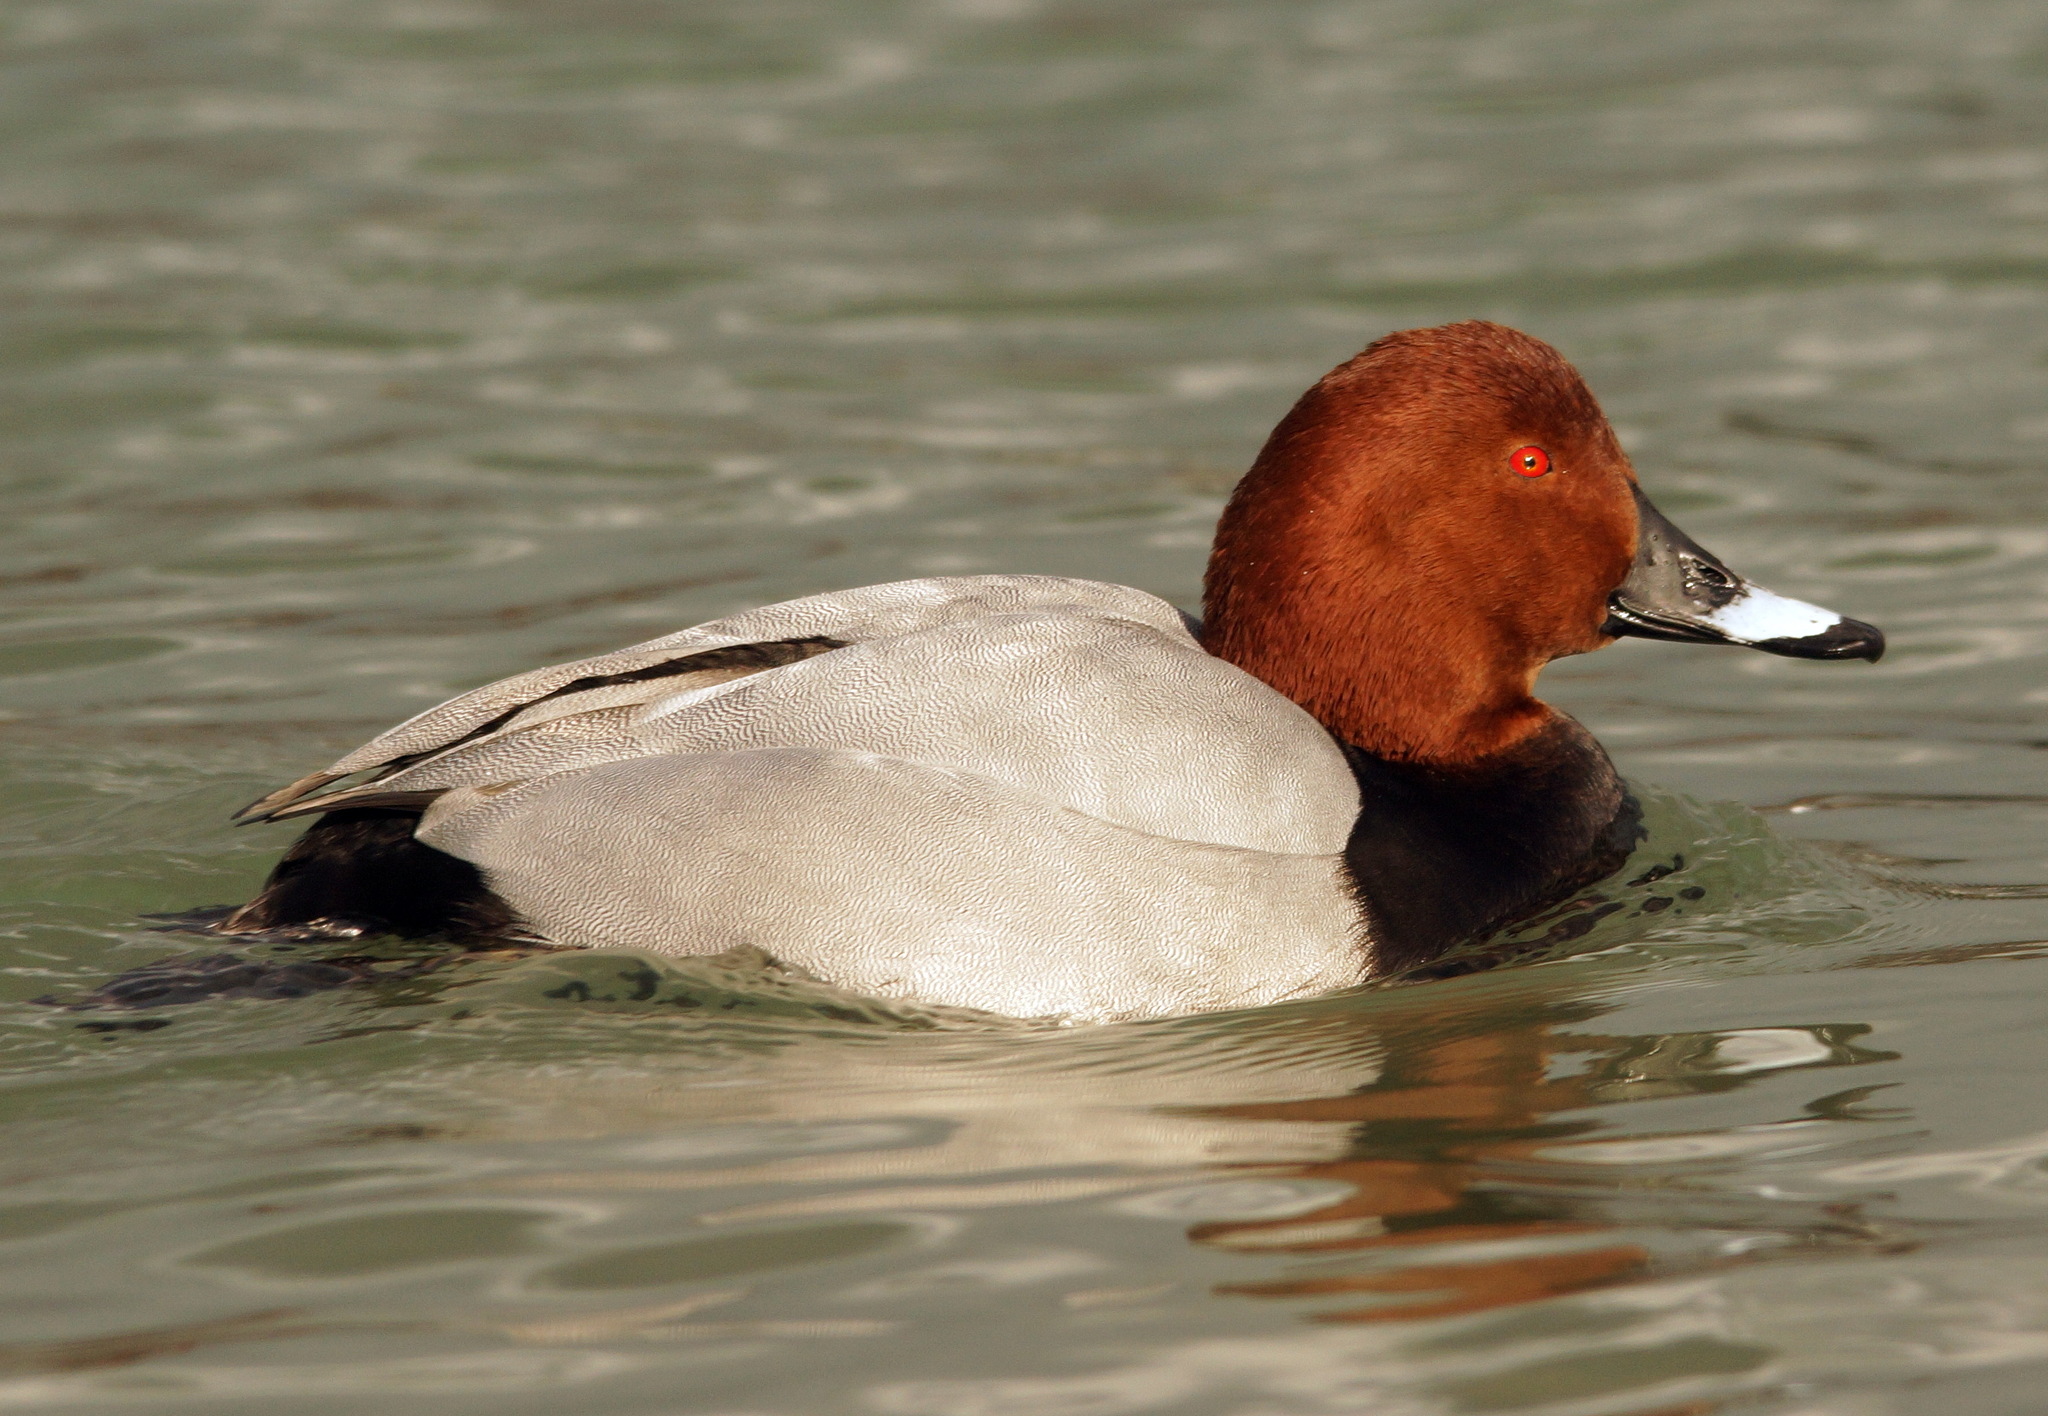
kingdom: Animalia
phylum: Chordata
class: Aves
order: Anseriformes
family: Anatidae
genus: Aythya
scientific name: Aythya ferina
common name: Common pochard
